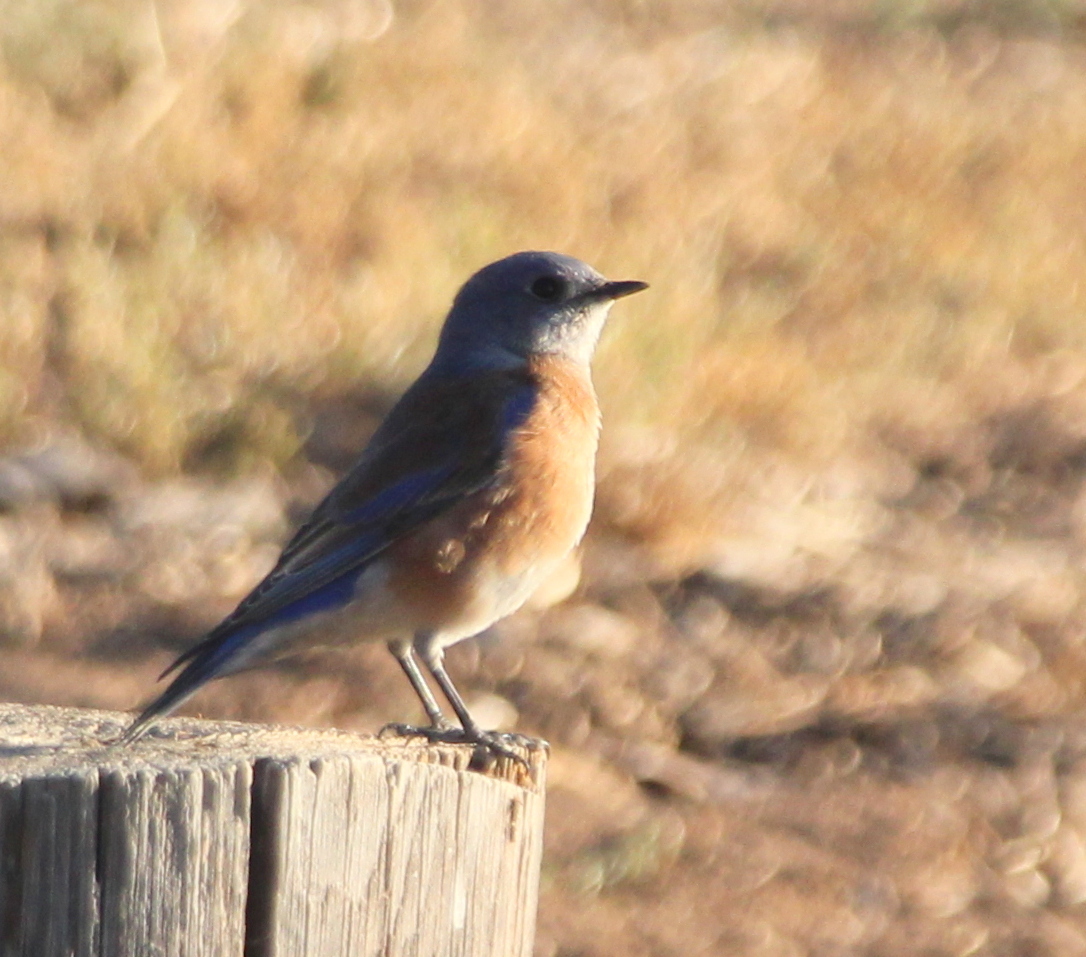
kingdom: Animalia
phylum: Chordata
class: Aves
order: Passeriformes
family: Turdidae
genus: Sialia
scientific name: Sialia mexicana
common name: Western bluebird
